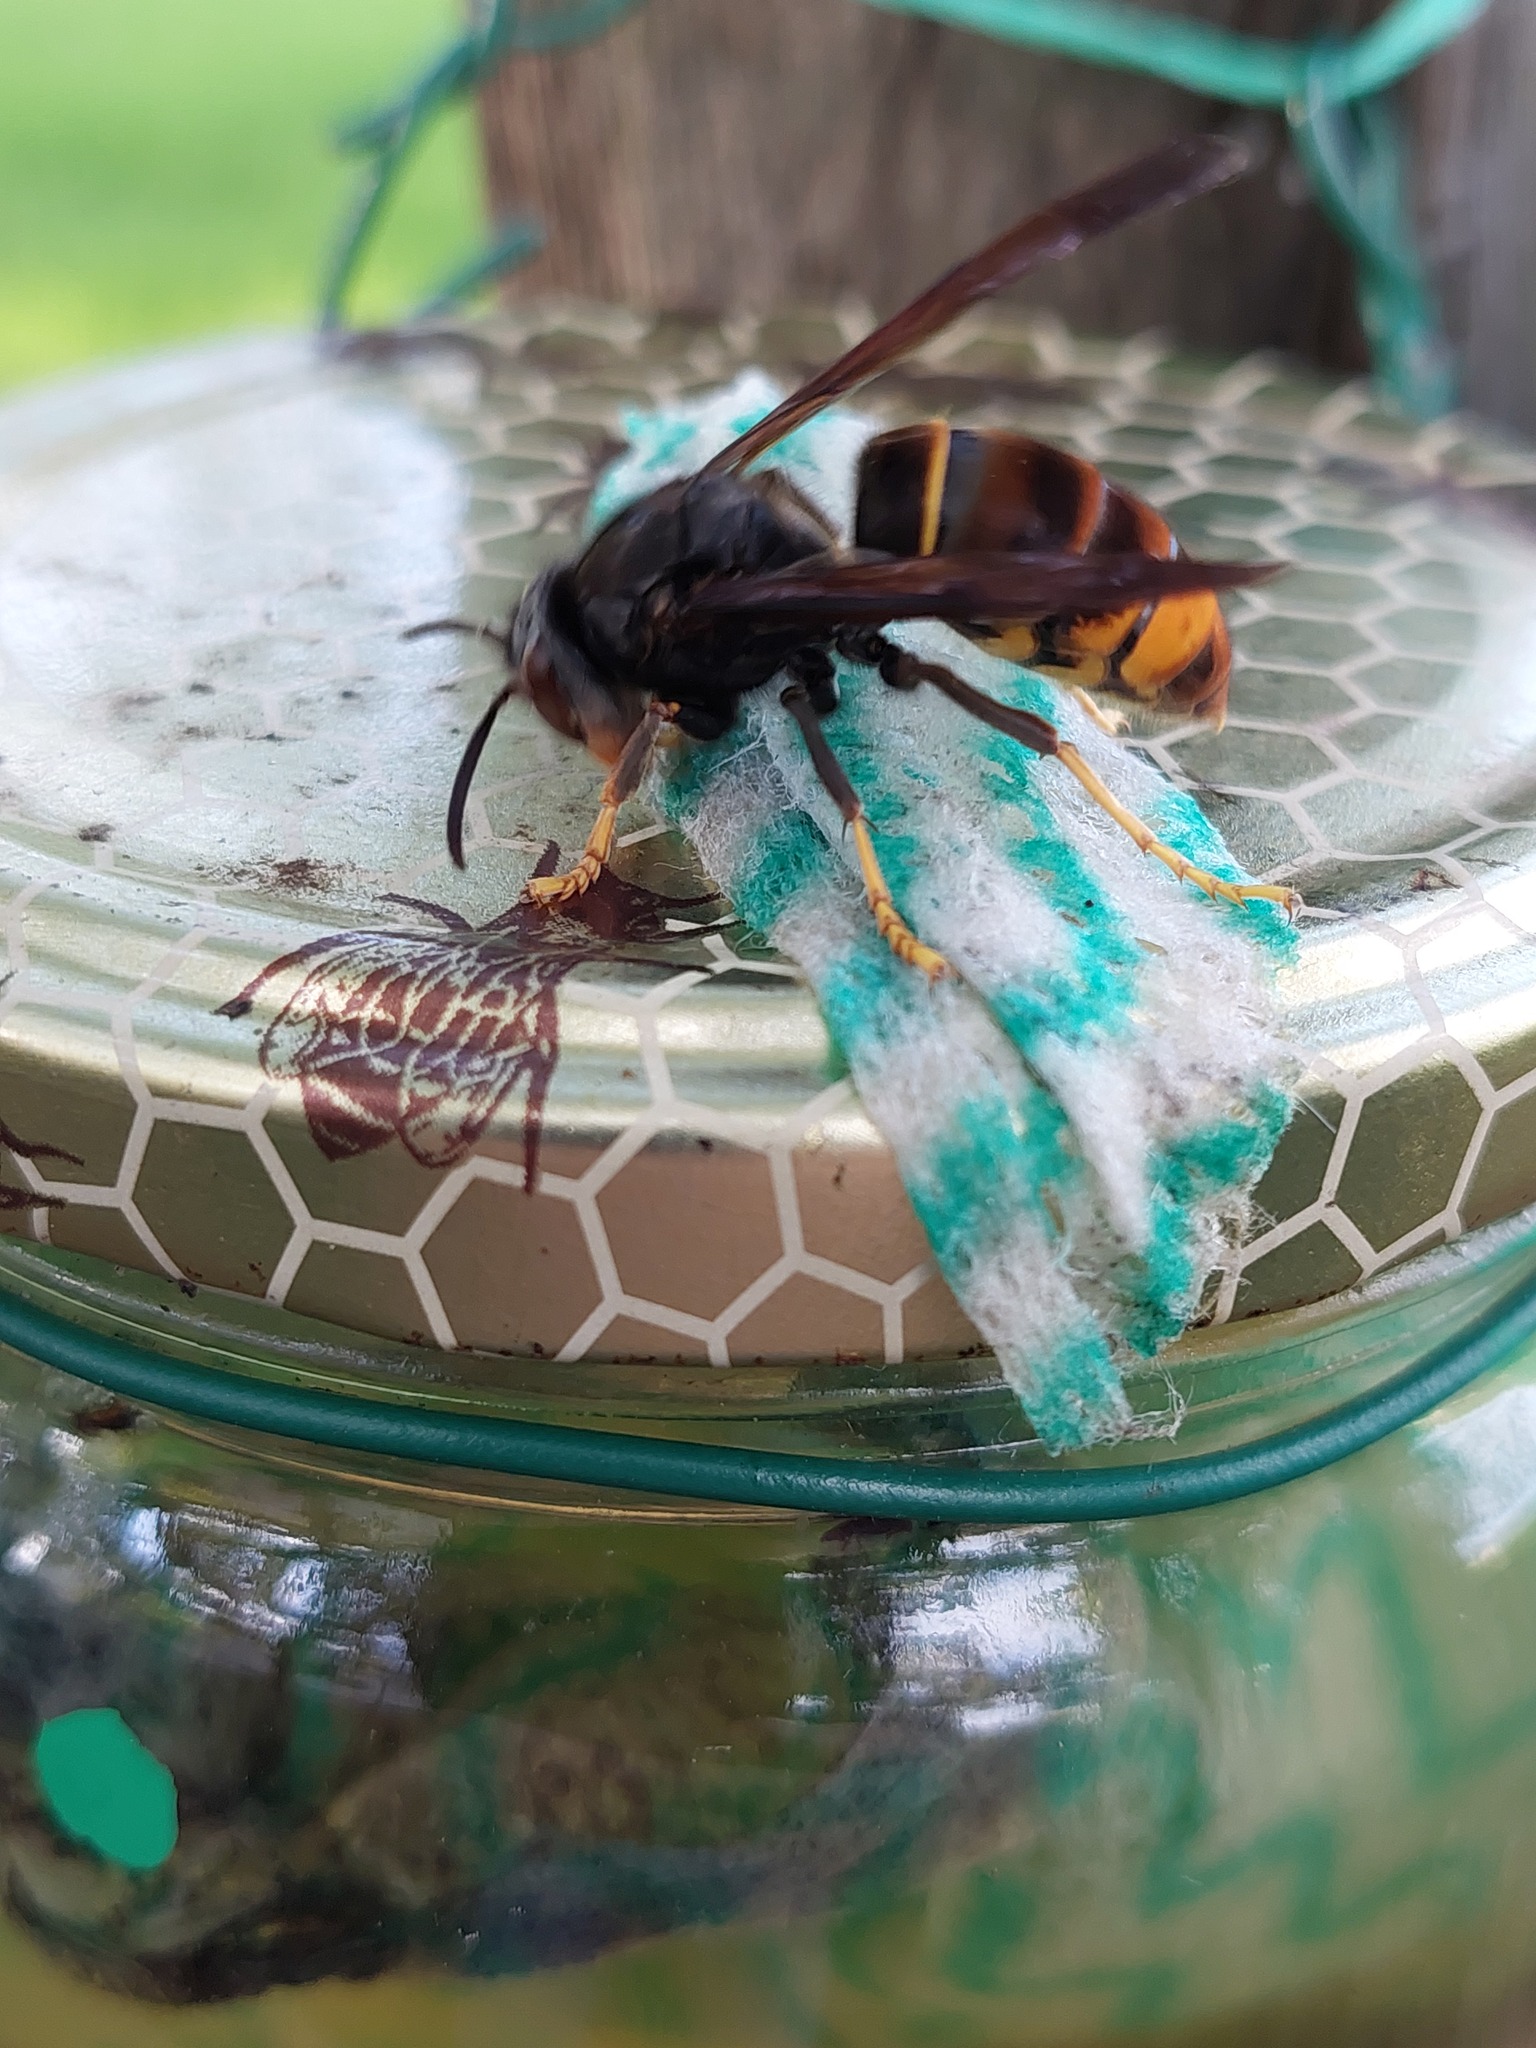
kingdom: Animalia
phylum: Arthropoda
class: Insecta
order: Hymenoptera
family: Vespidae
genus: Vespa
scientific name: Vespa velutina
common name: Asian hornet
